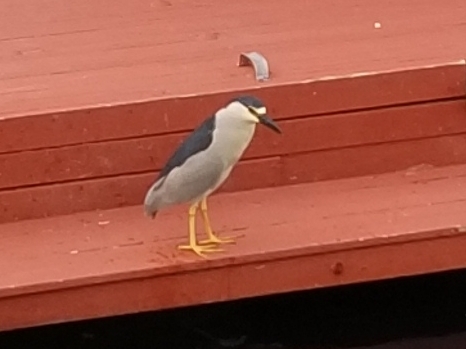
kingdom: Animalia
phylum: Chordata
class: Aves
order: Pelecaniformes
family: Ardeidae
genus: Nycticorax
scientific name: Nycticorax nycticorax
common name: Black-crowned night heron
